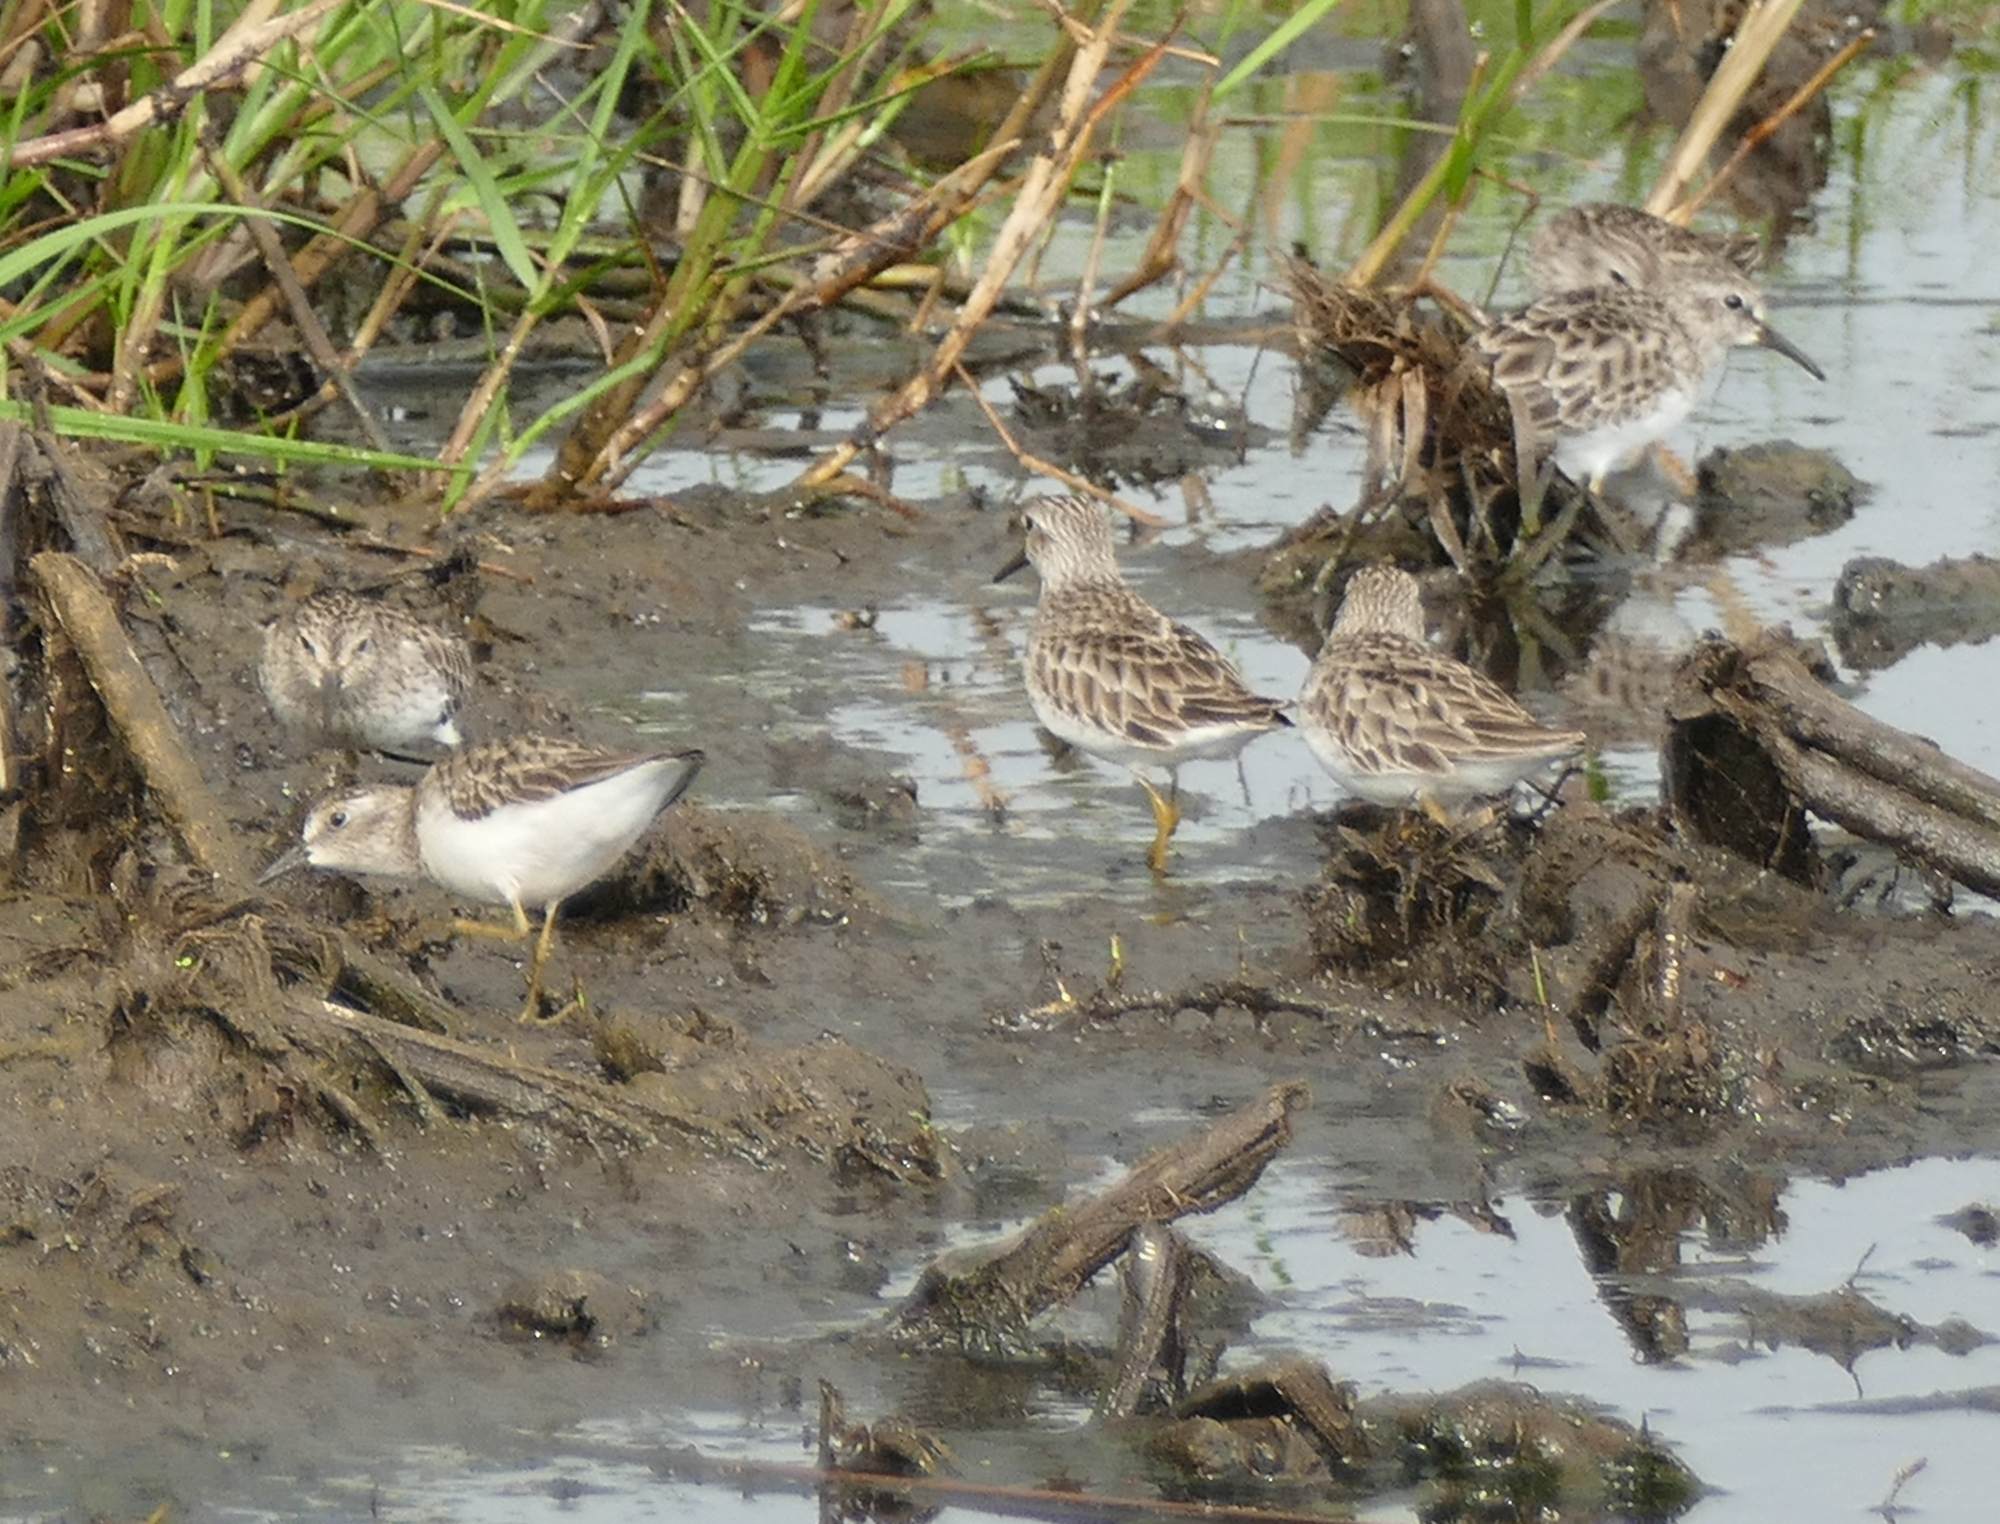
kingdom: Animalia
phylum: Chordata
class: Aves
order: Charadriiformes
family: Scolopacidae
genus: Calidris
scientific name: Calidris minutilla
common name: Least sandpiper
